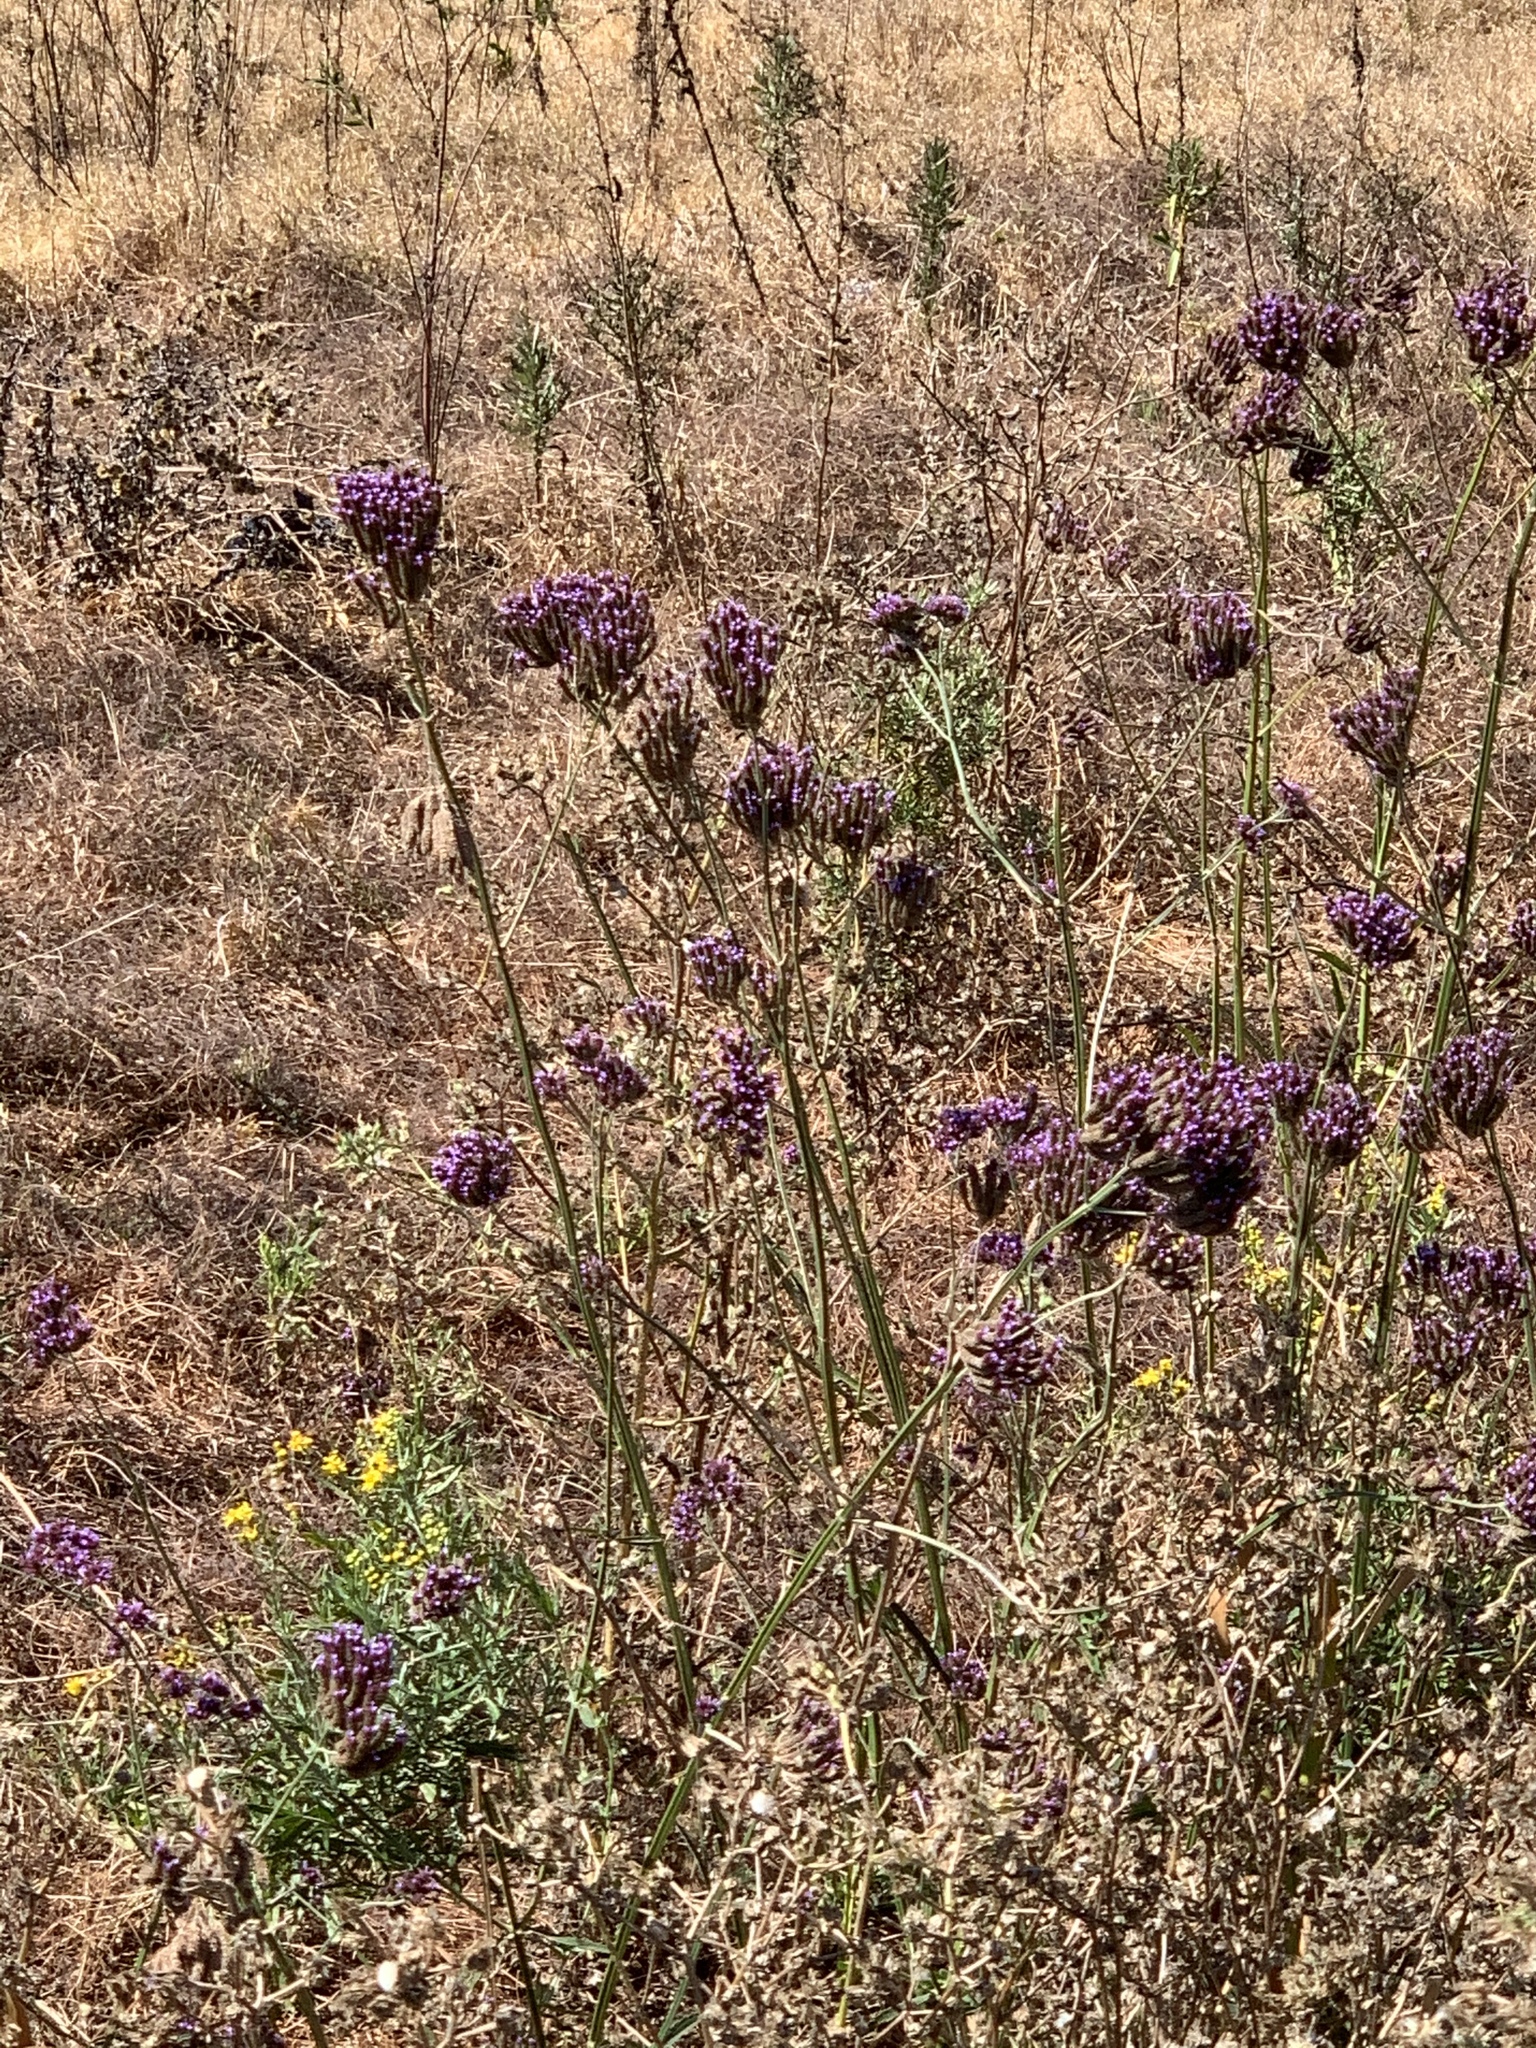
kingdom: Plantae
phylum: Tracheophyta
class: Magnoliopsida
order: Lamiales
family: Verbenaceae
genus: Verbena
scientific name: Verbena bonariensis
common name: Purpletop vervain
